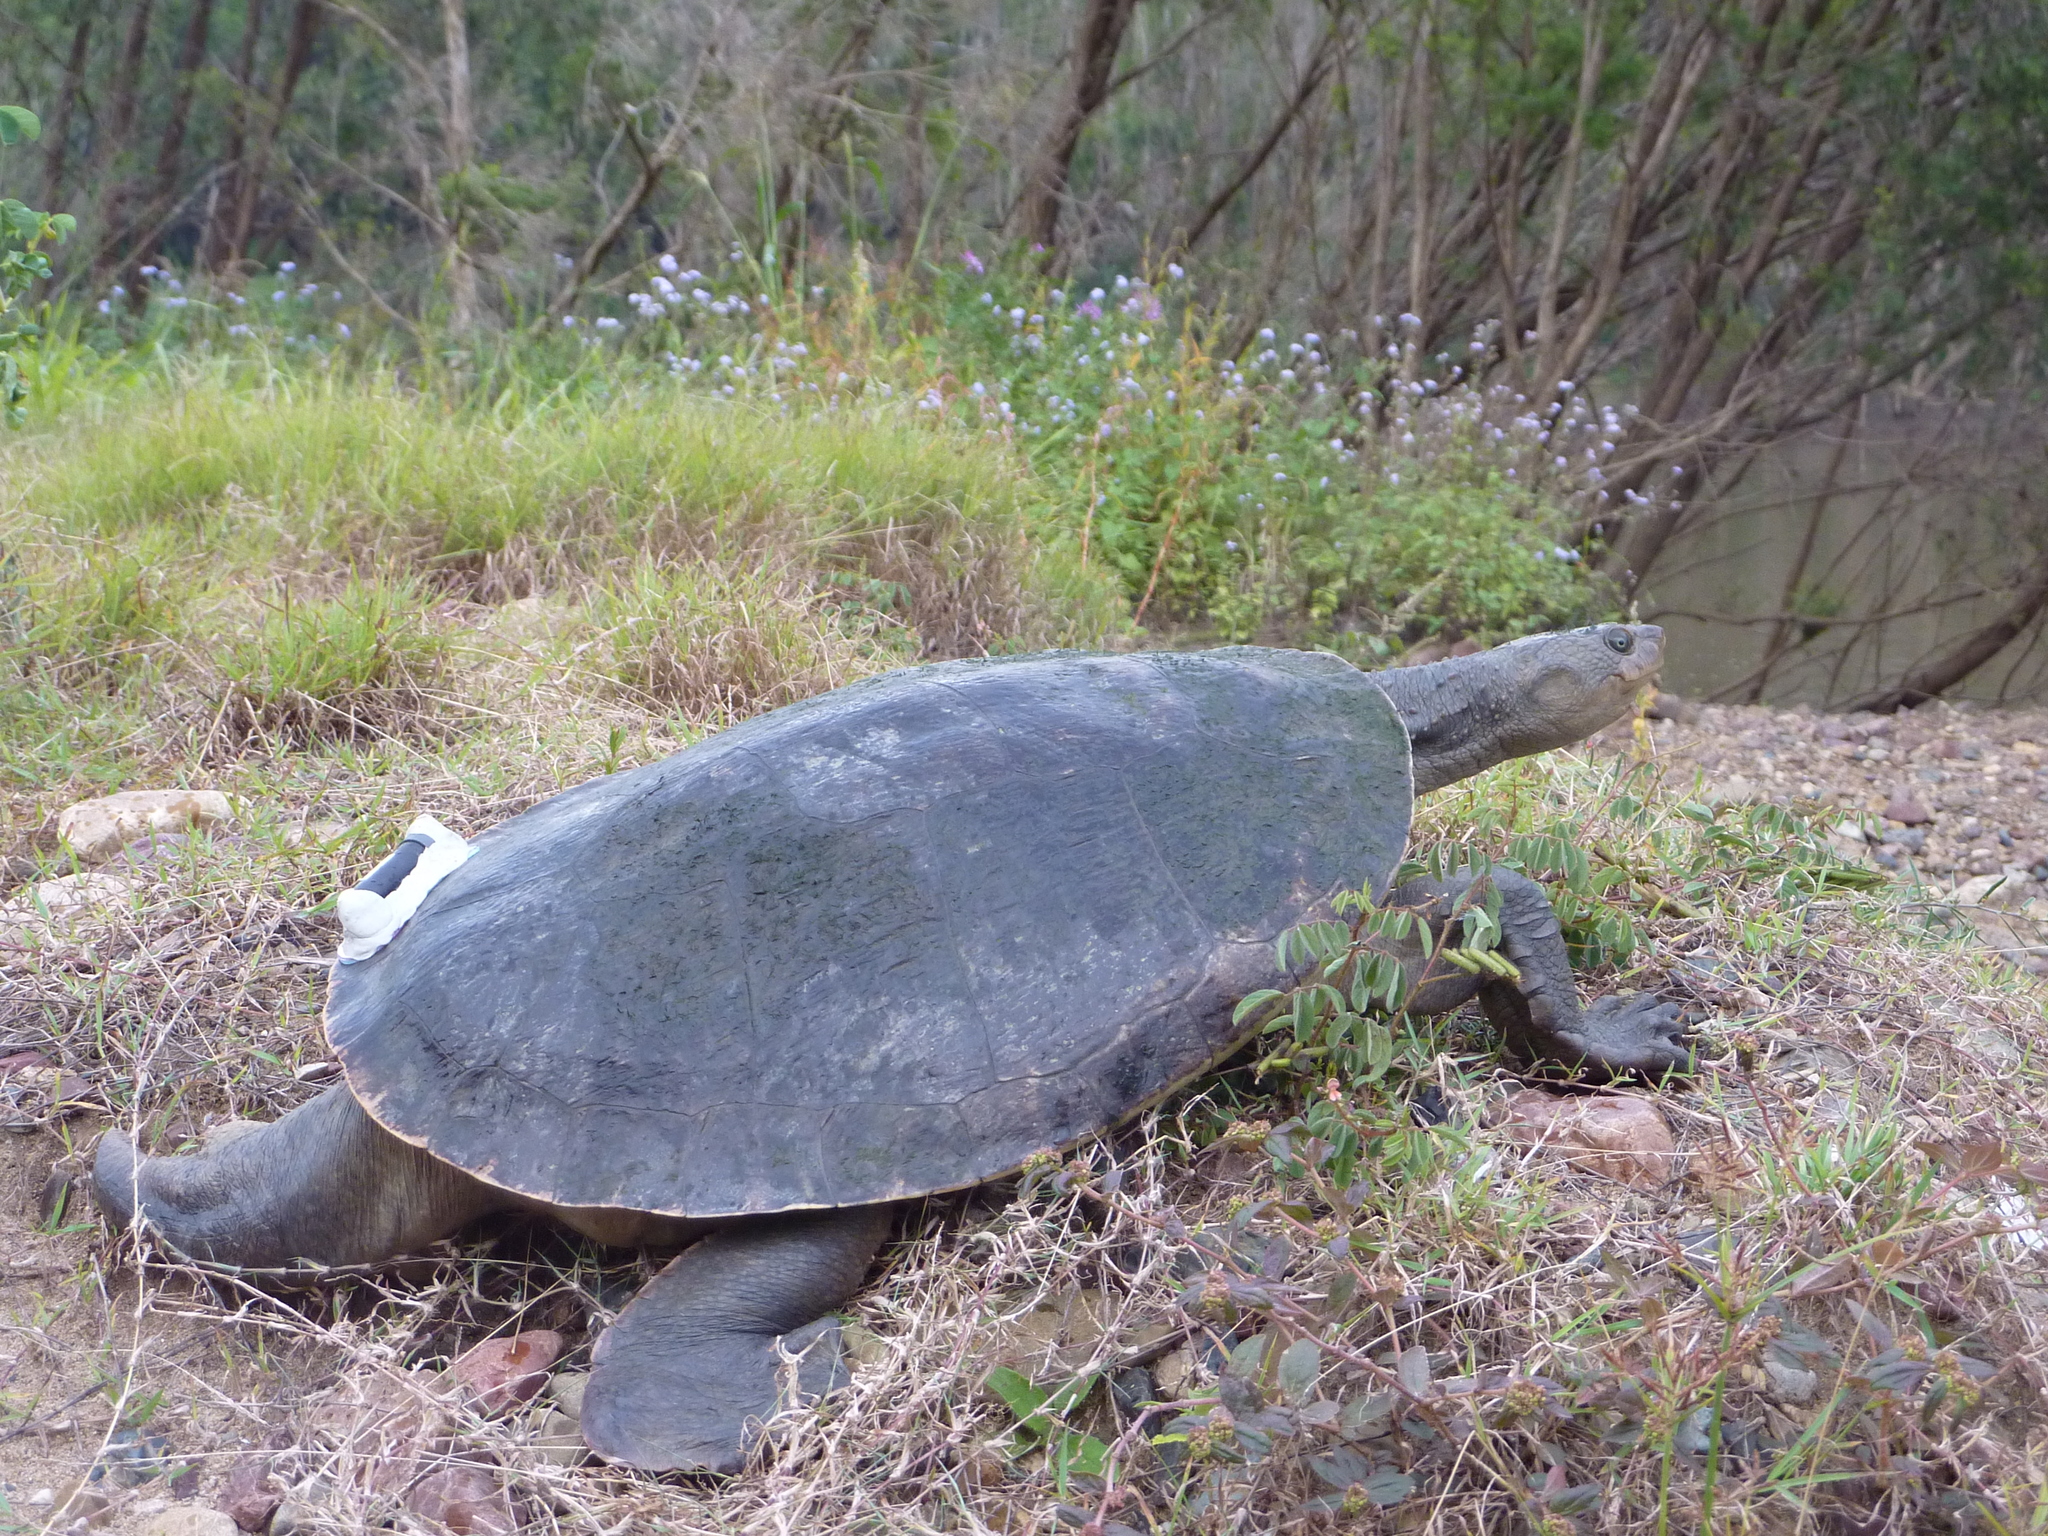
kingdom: Animalia
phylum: Chordata
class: Testudines
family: Chelidae
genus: Elusor
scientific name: Elusor macrurus
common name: Mary river turtle
